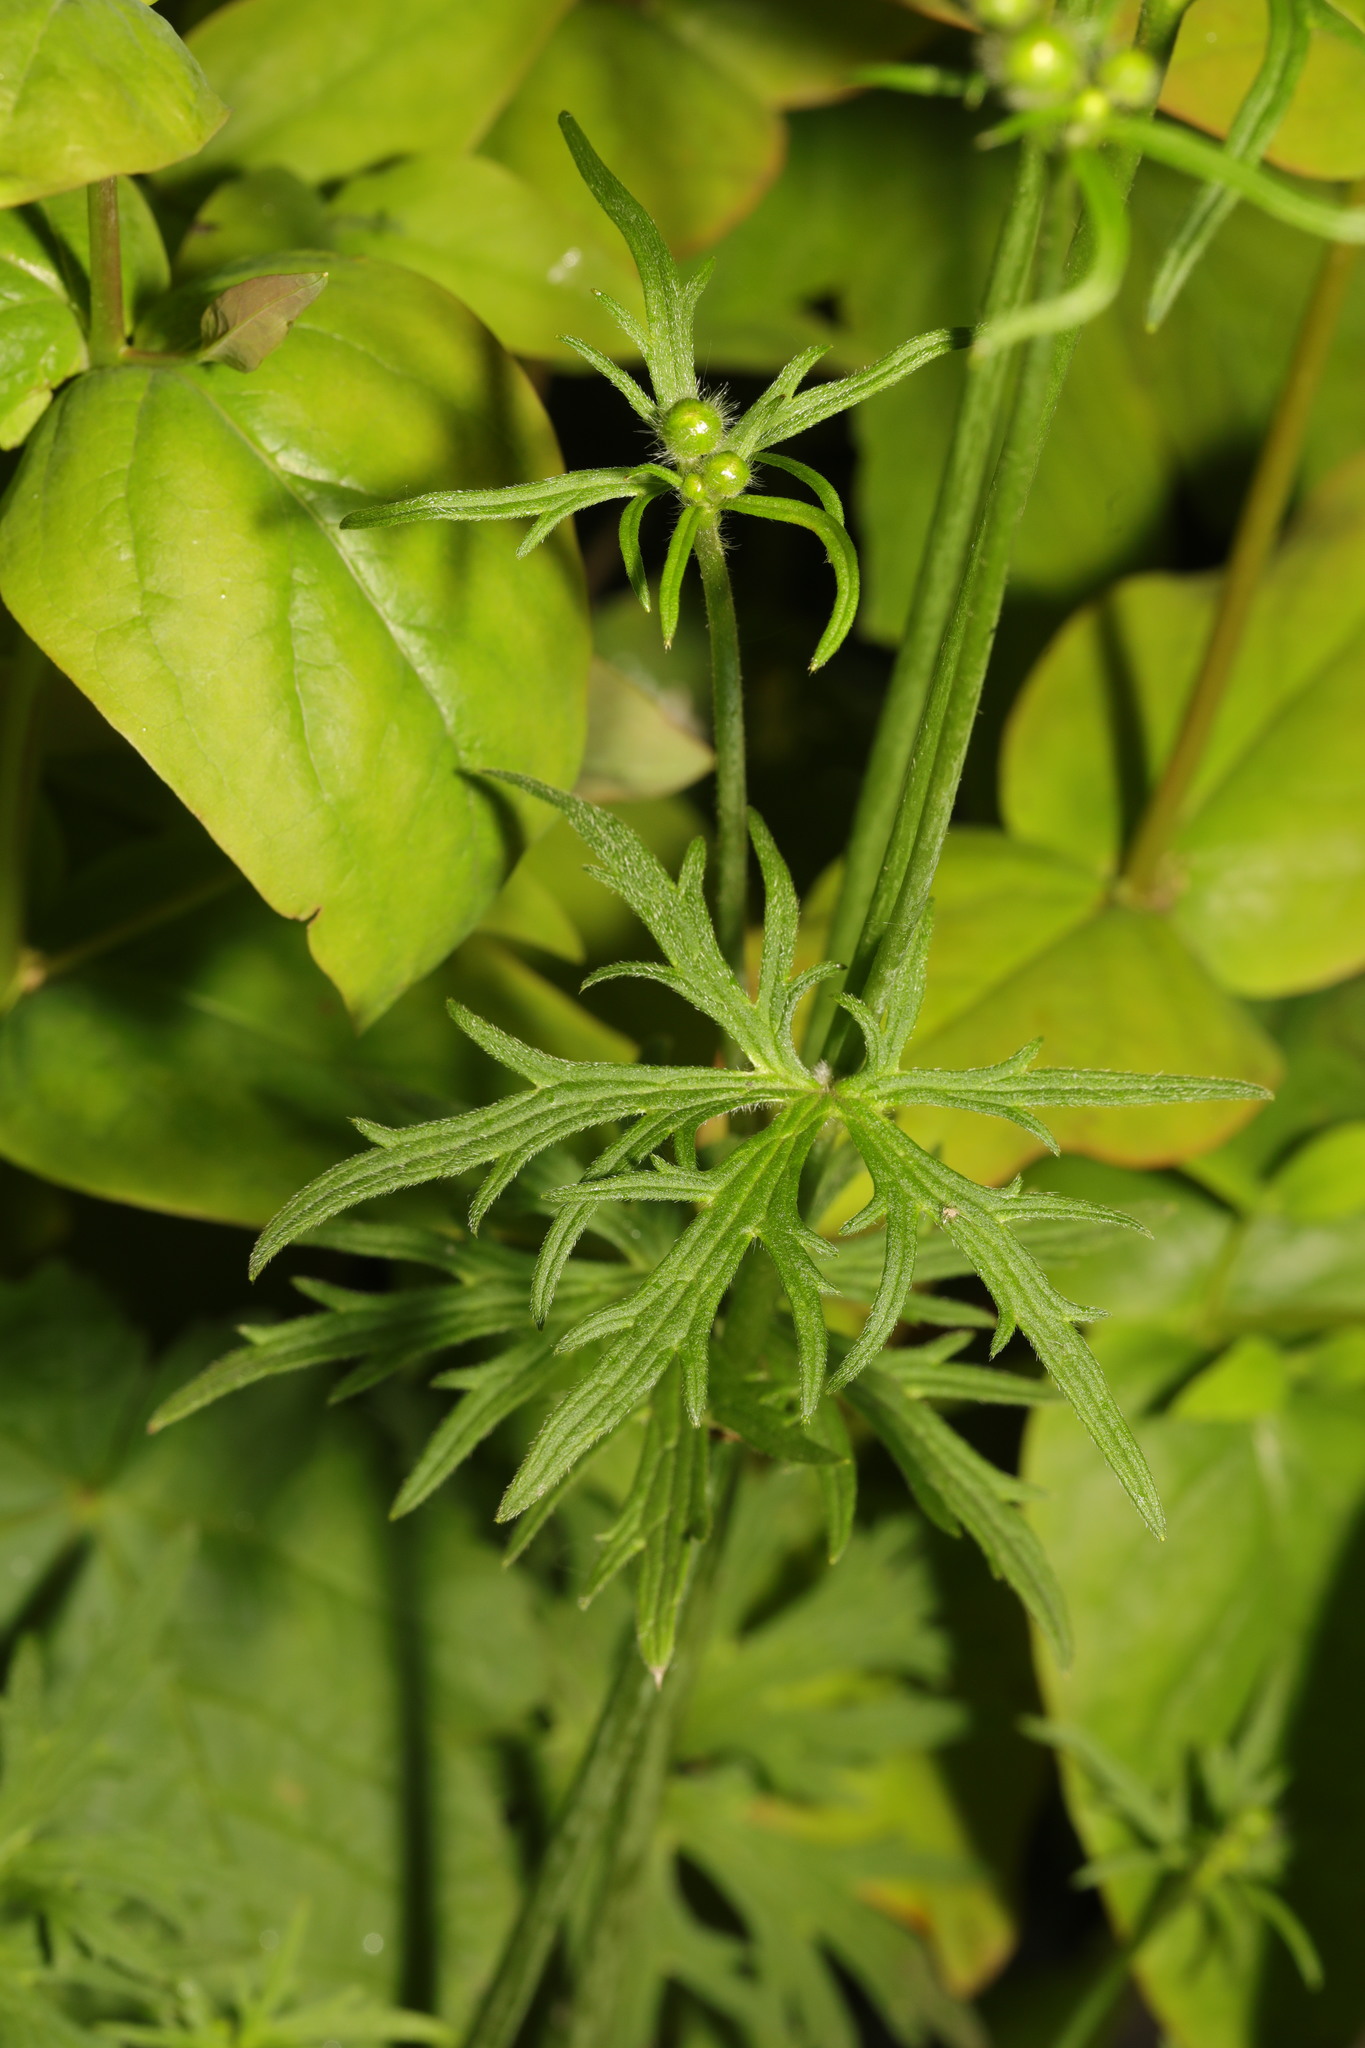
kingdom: Plantae
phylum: Tracheophyta
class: Magnoliopsida
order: Ranunculales
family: Ranunculaceae
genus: Ranunculus
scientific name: Ranunculus acris
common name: Meadow buttercup
